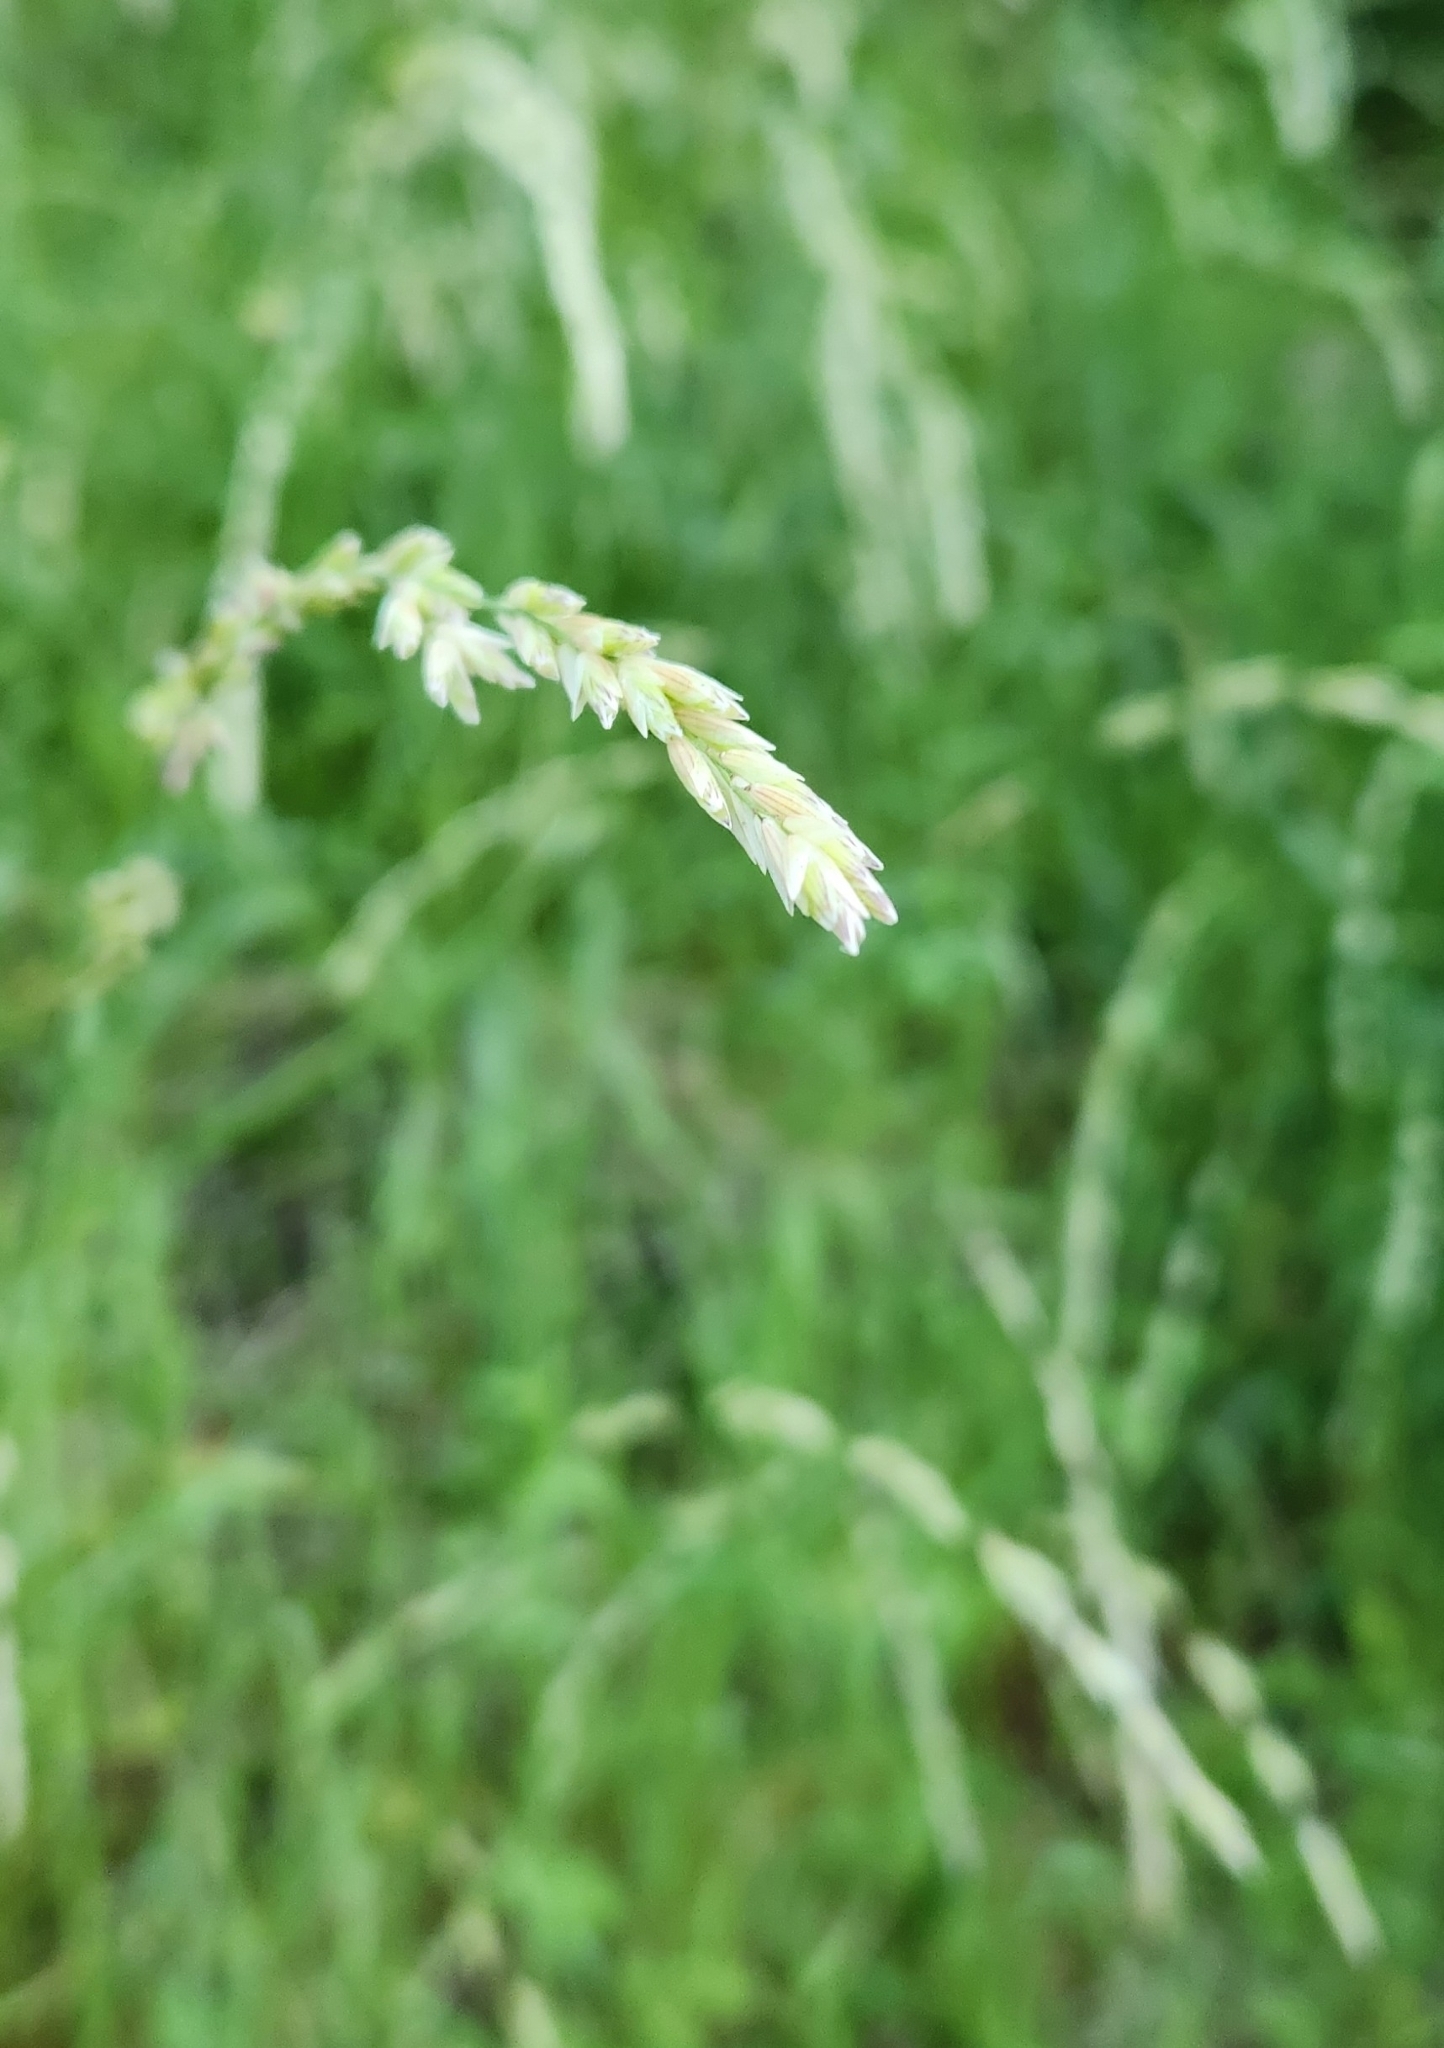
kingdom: Plantae
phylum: Tracheophyta
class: Liliopsida
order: Poales
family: Poaceae
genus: Melica
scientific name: Melica californica
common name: California melic
